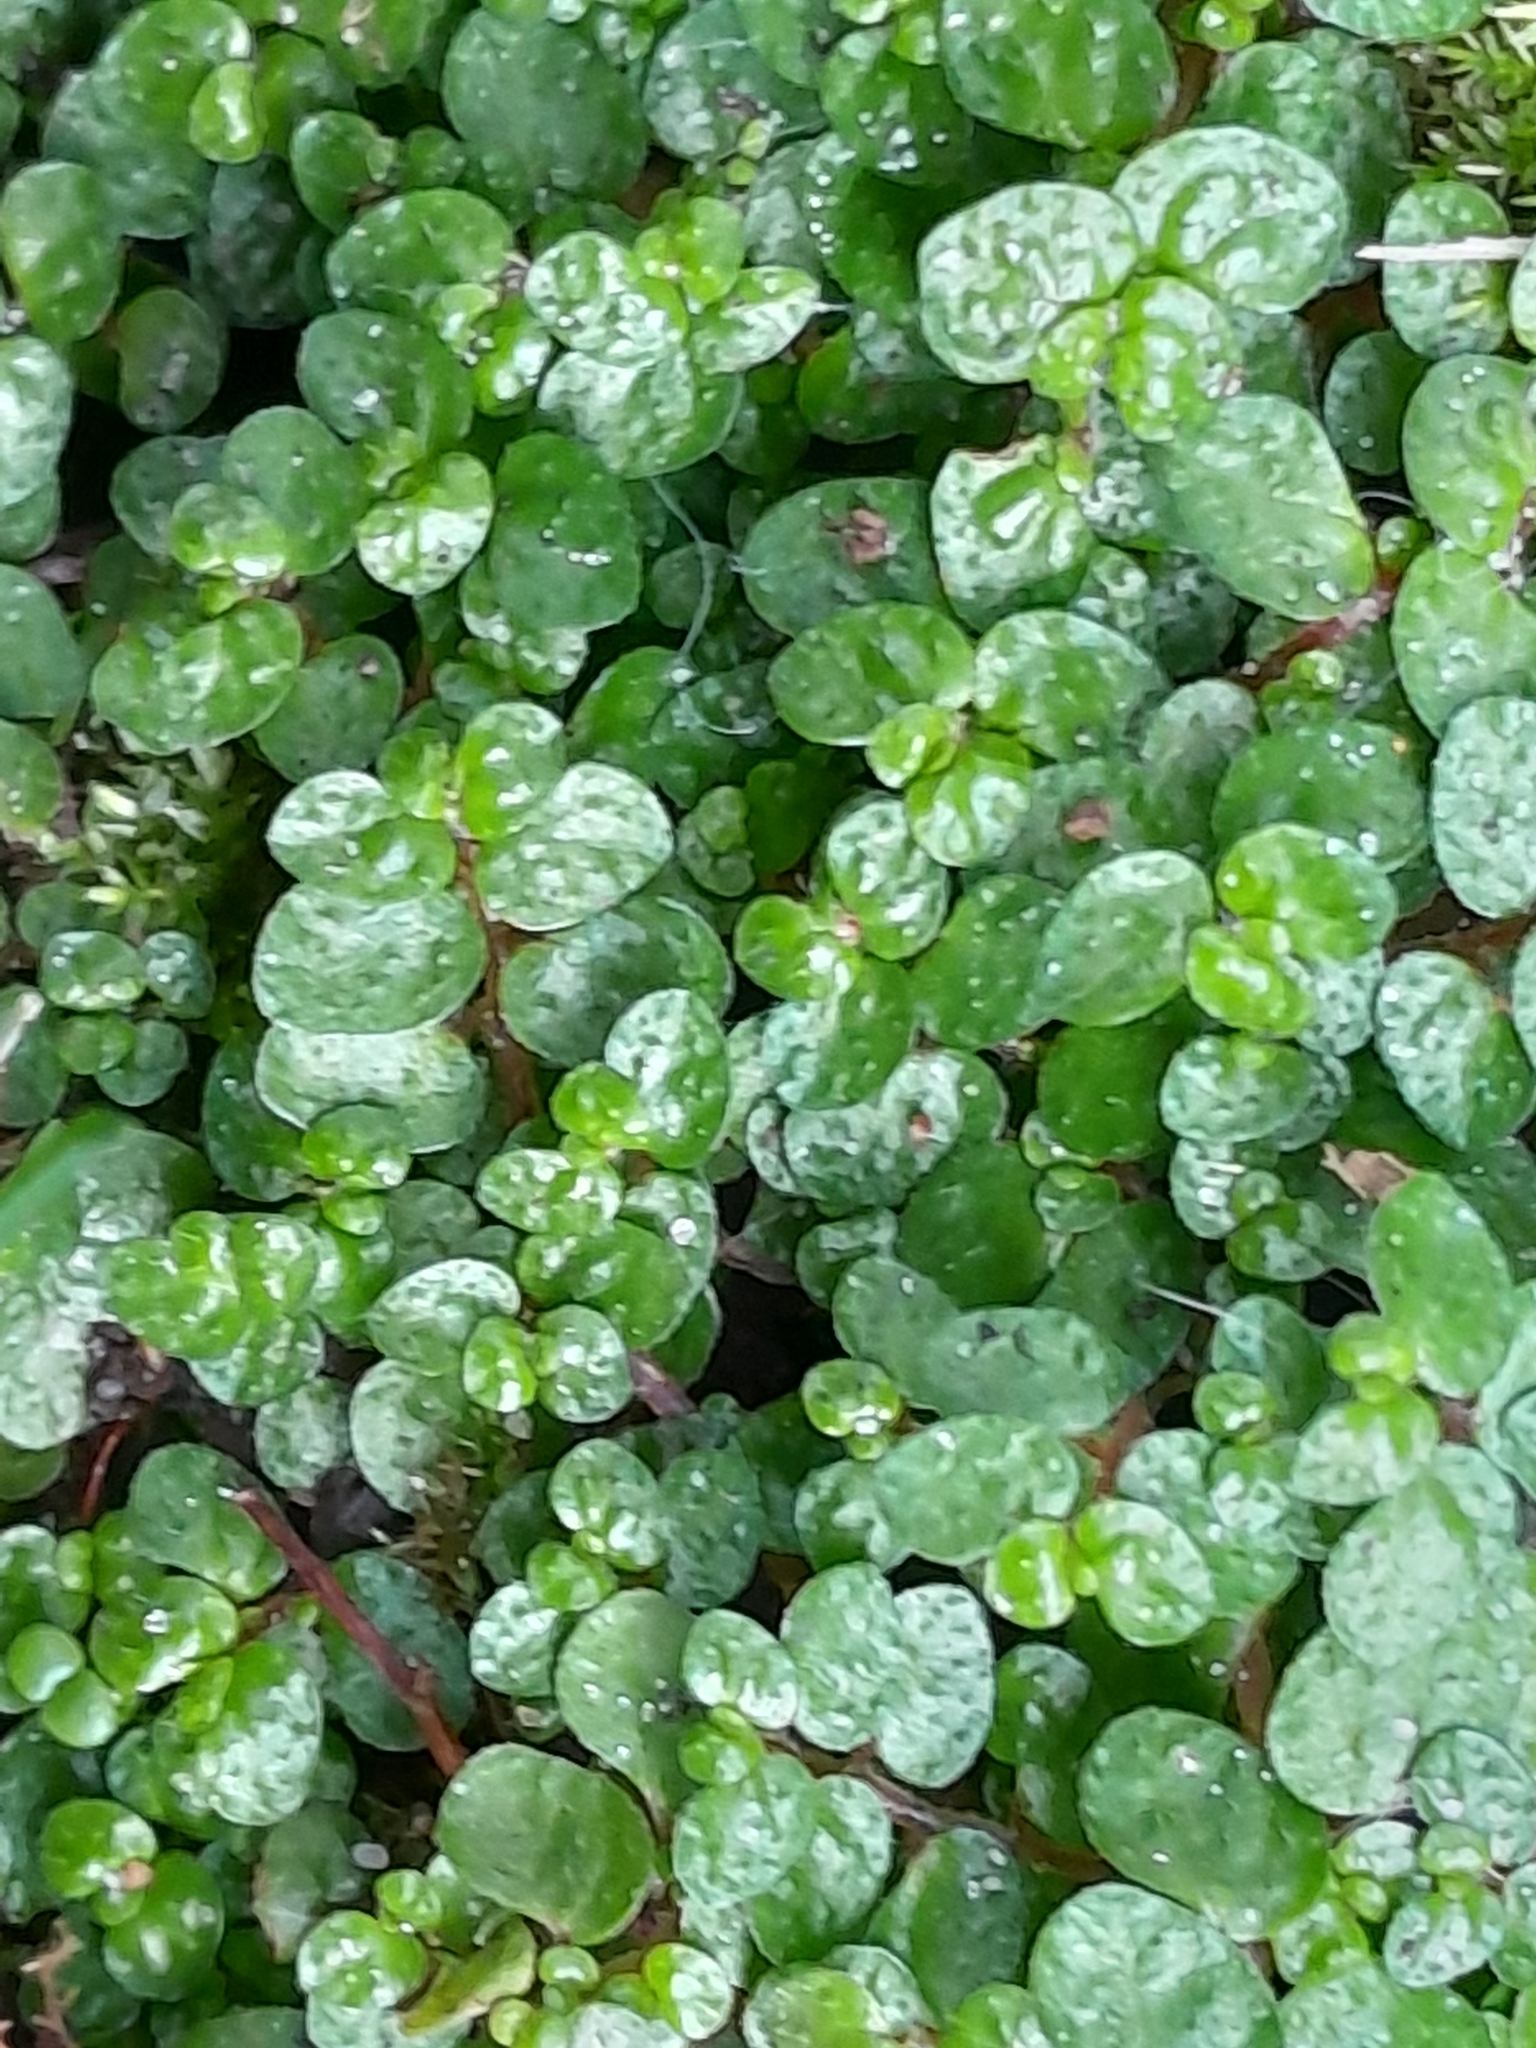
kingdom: Plantae
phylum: Tracheophyta
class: Magnoliopsida
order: Rosales
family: Urticaceae
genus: Soleirolia
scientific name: Soleirolia soleirolii
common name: Mind-your-own-business
